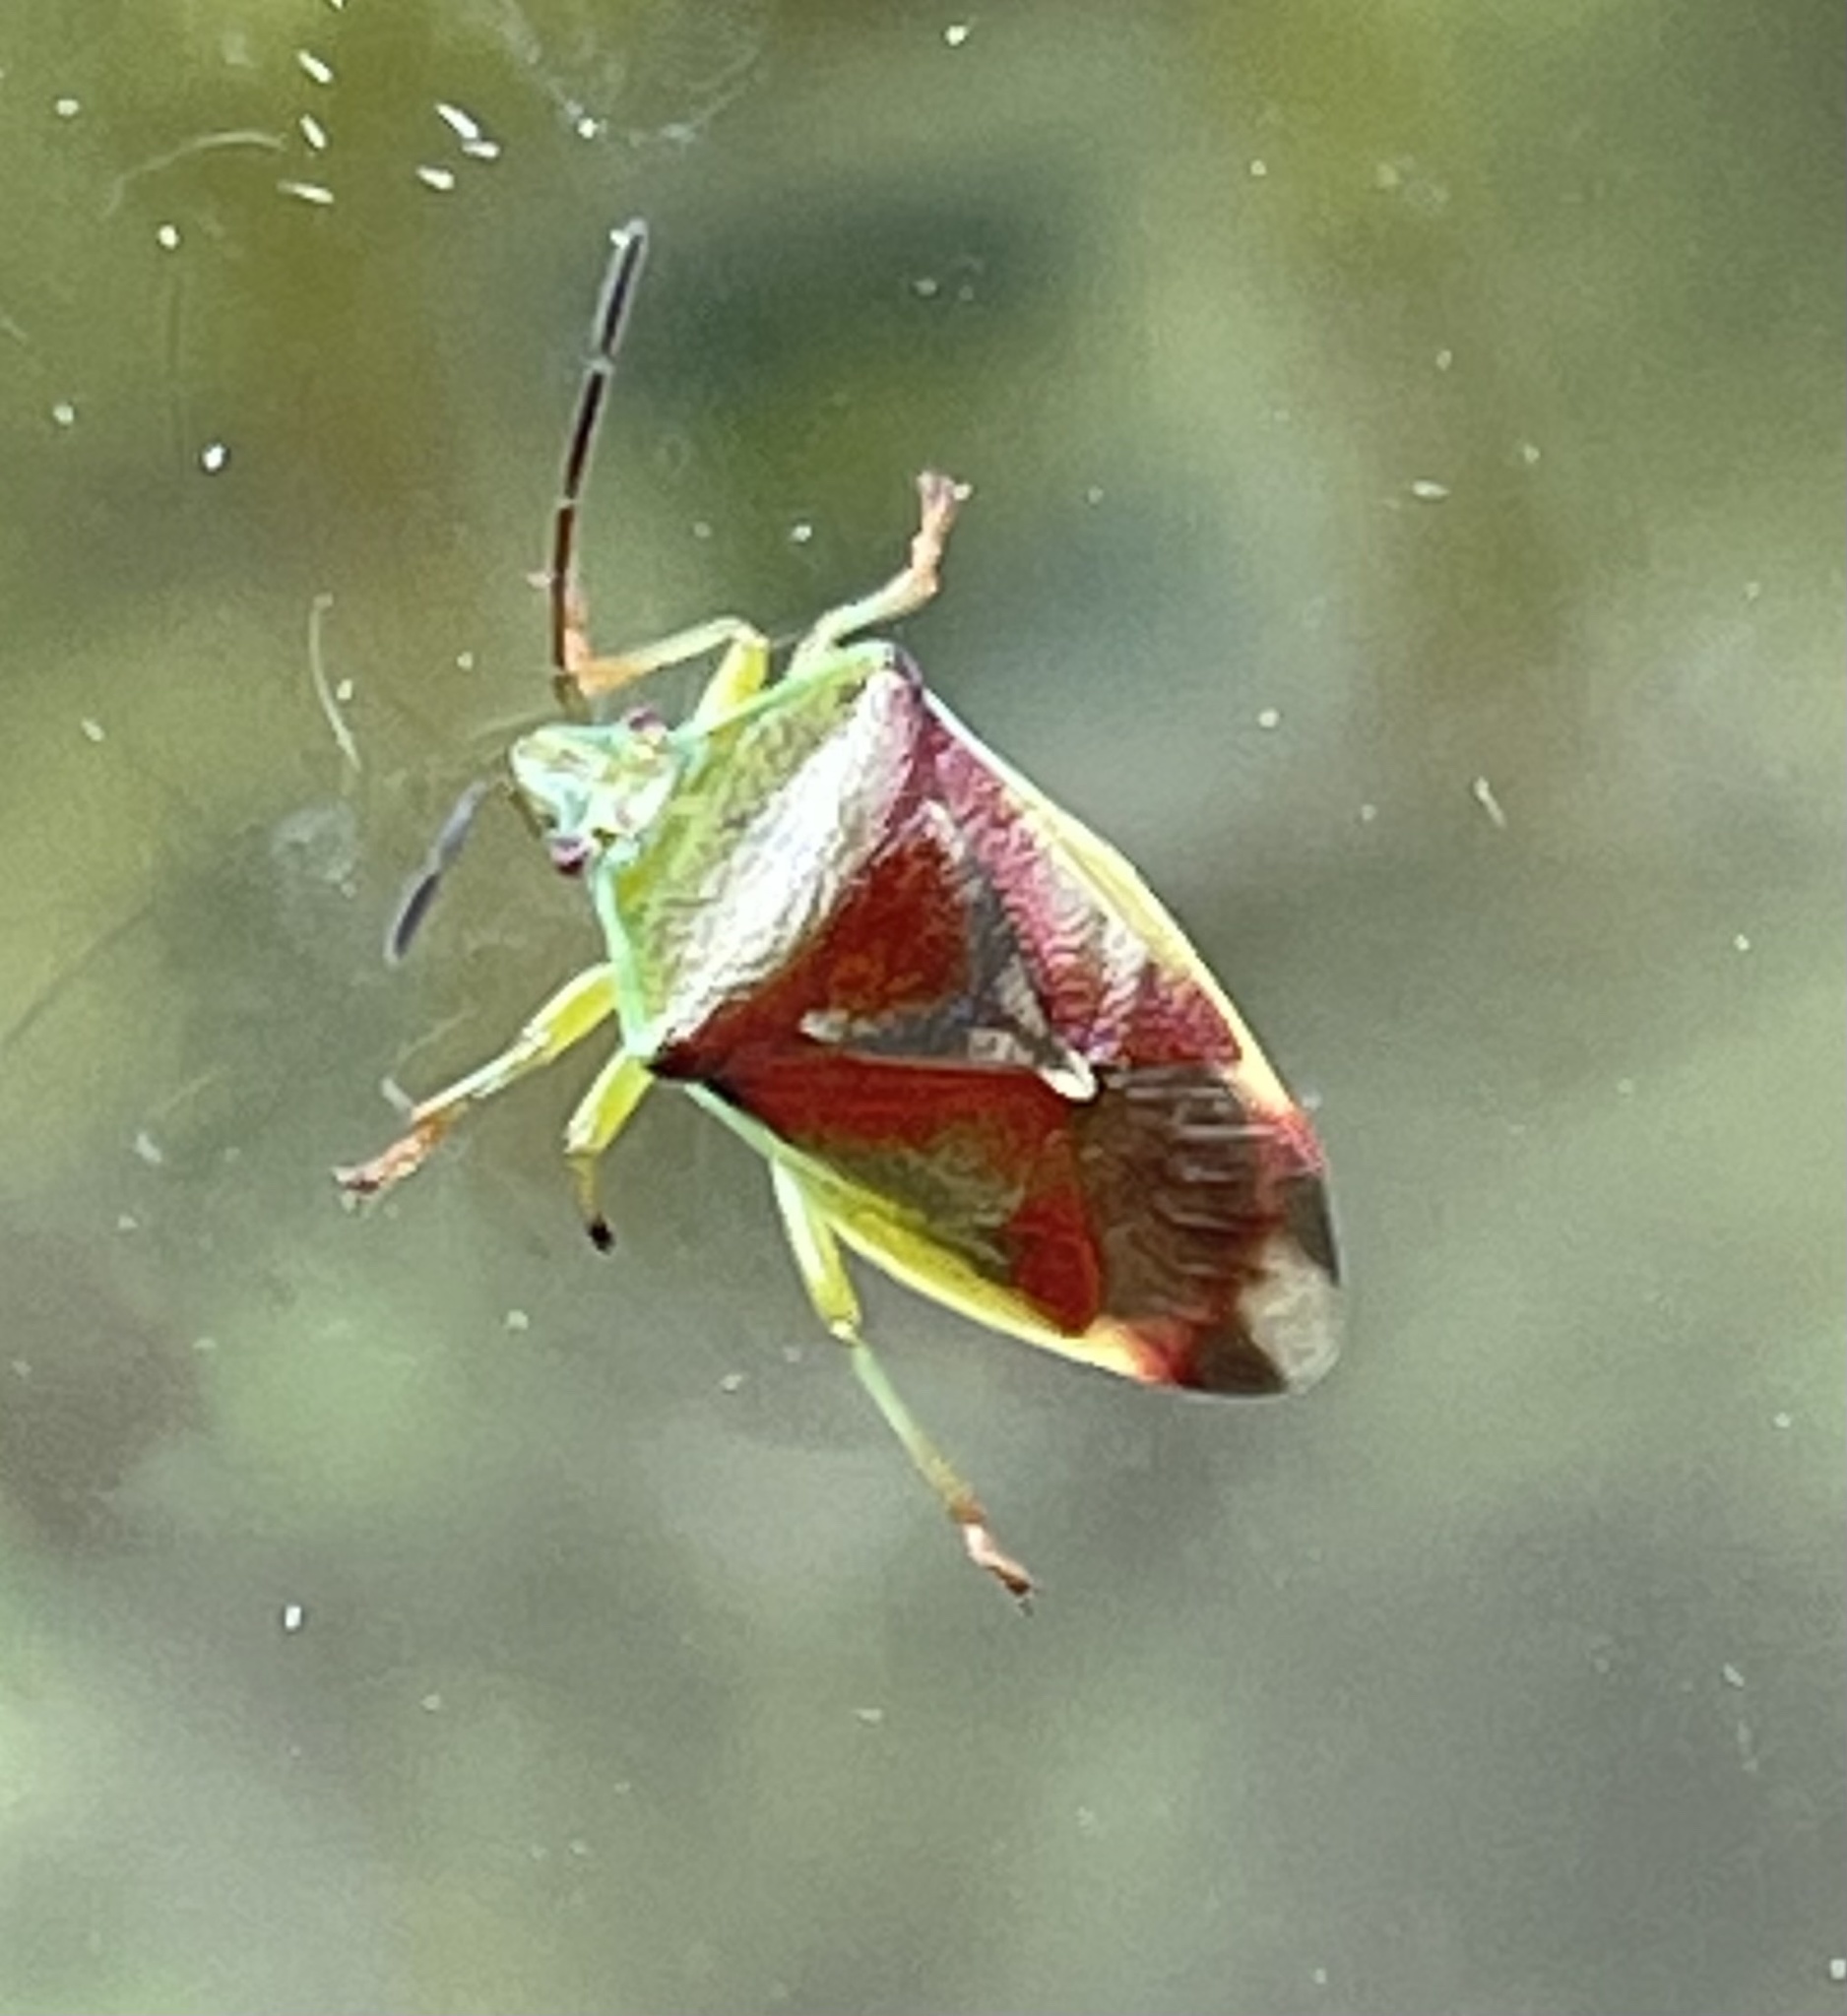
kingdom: Animalia
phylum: Arthropoda
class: Insecta
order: Hemiptera
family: Acanthosomatidae
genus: Elasmostethus
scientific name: Elasmostethus interstinctus
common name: Birch shieldbug
